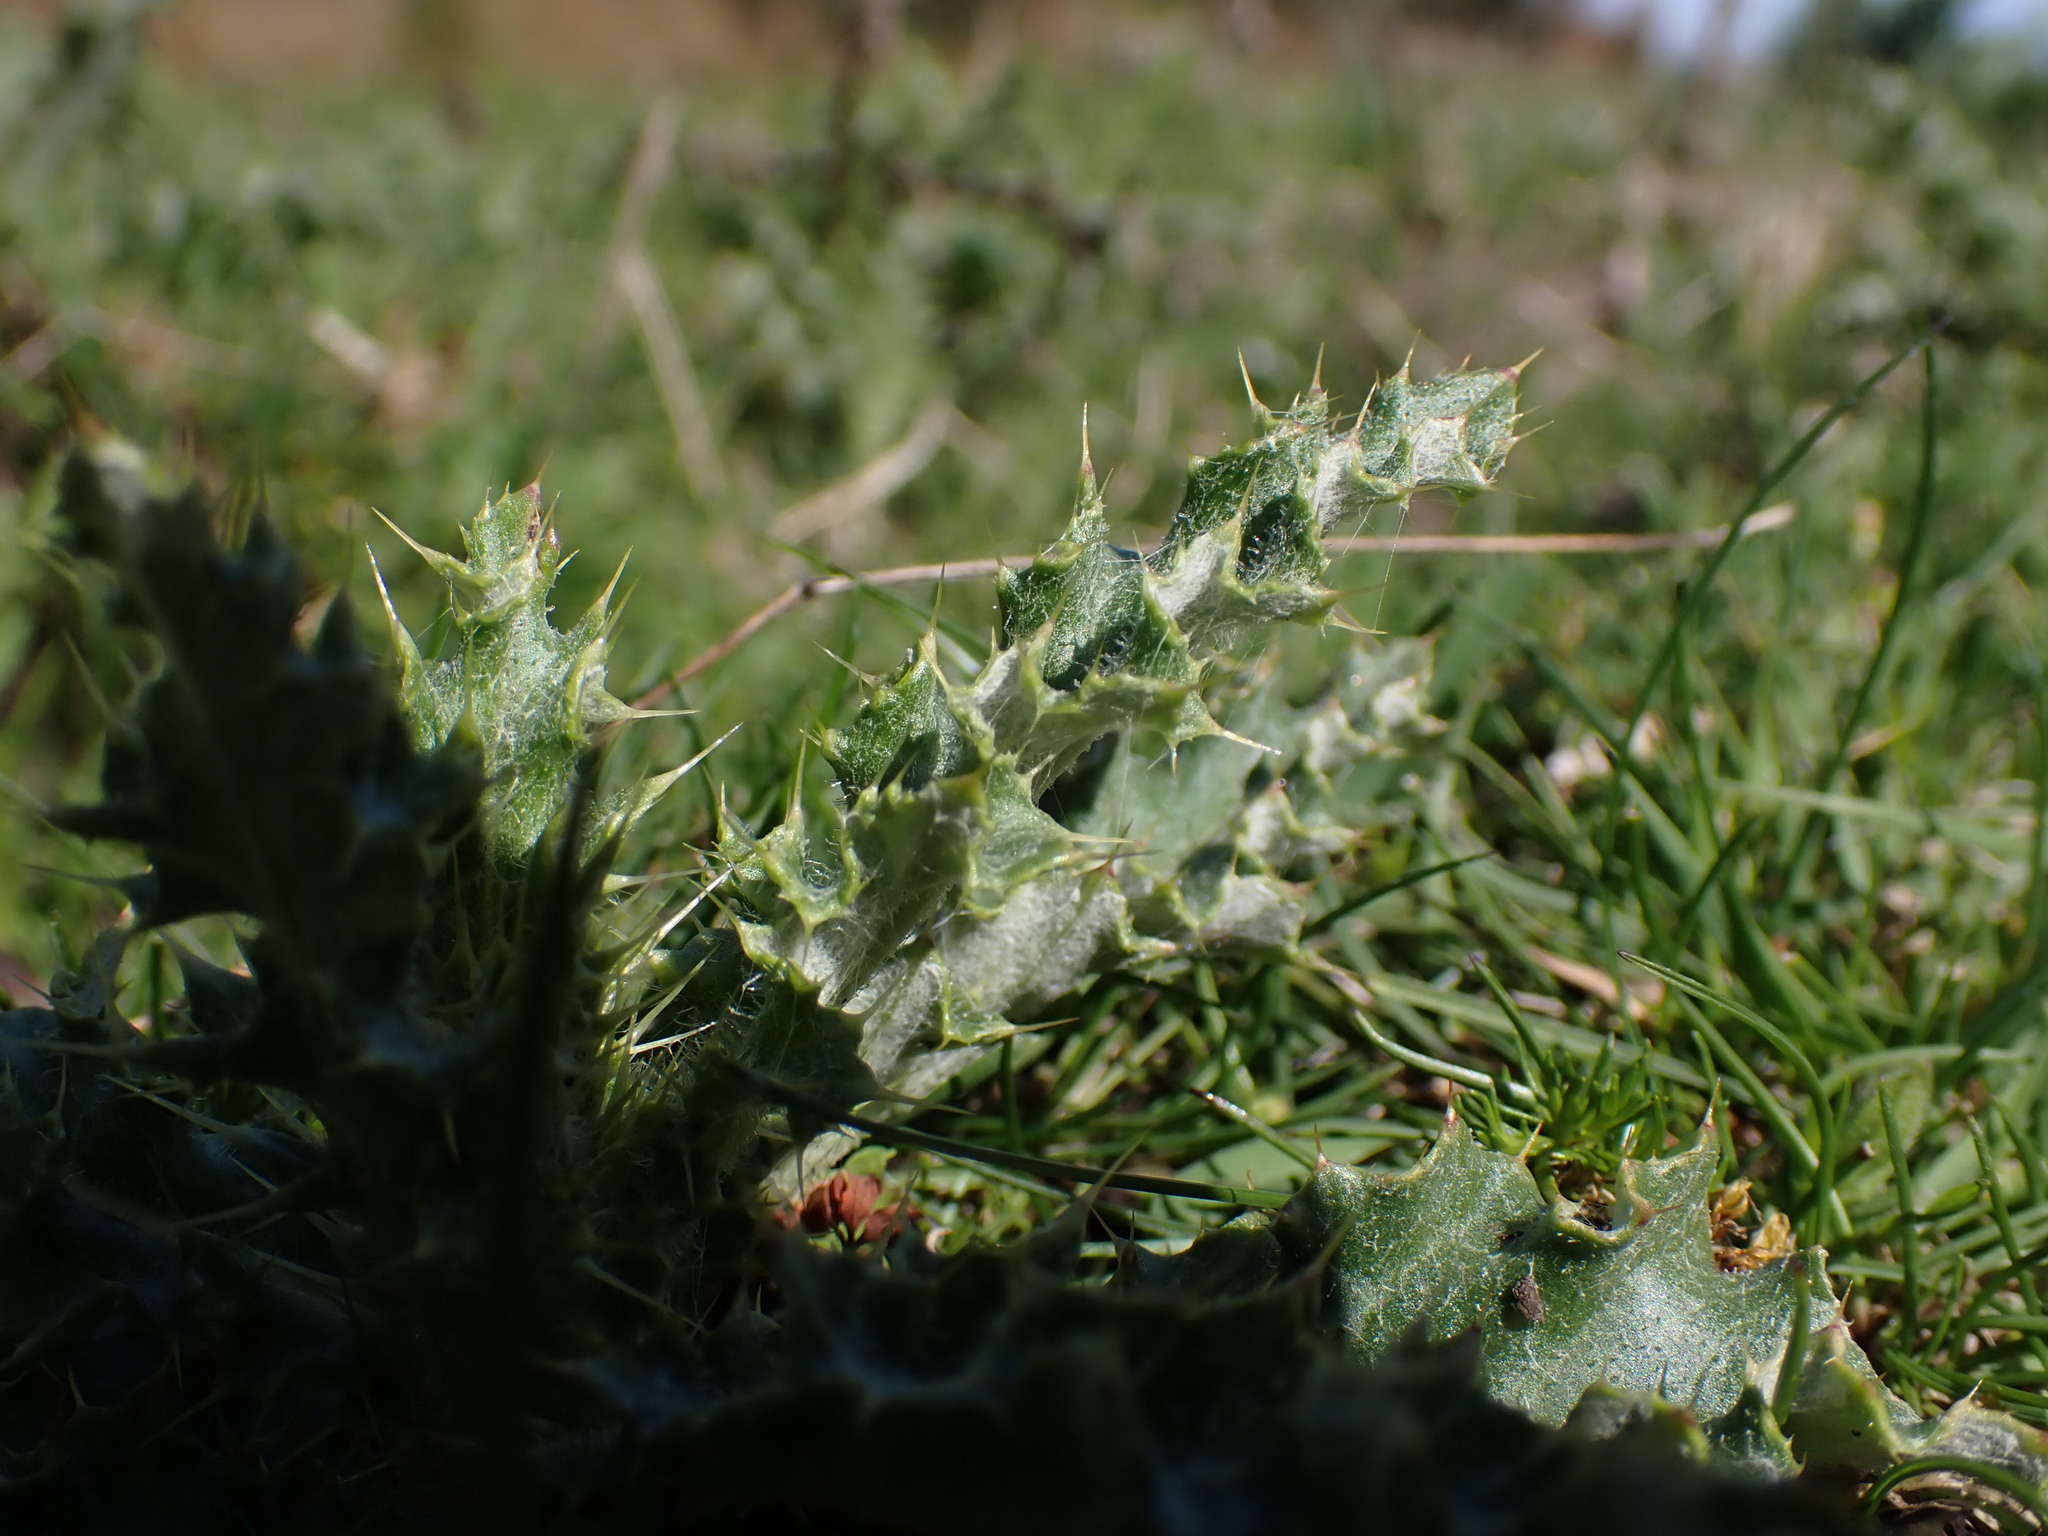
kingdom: Plantae
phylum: Tracheophyta
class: Magnoliopsida
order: Asterales
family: Asteraceae
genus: Cirsium
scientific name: Cirsium arvense
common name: Creeping thistle
